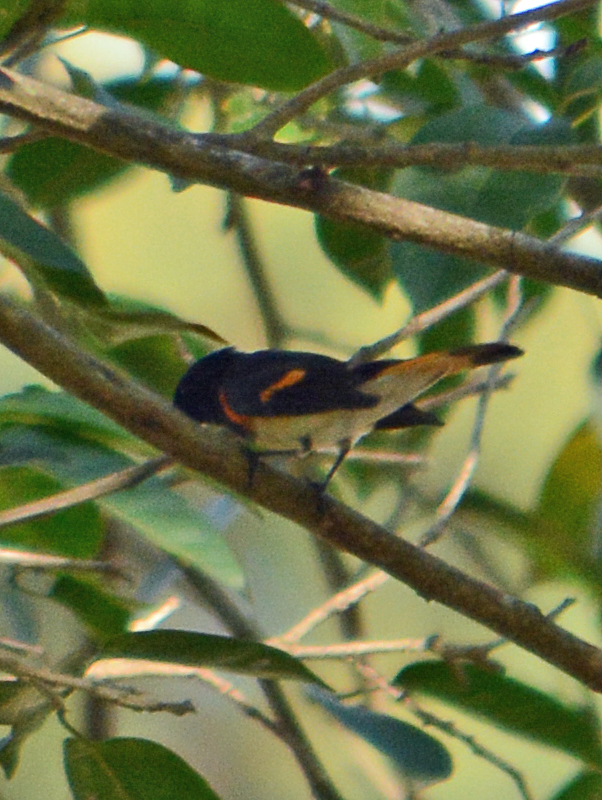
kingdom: Animalia
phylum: Chordata
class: Aves
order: Passeriformes
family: Parulidae
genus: Setophaga
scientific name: Setophaga ruticilla
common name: American redstart
